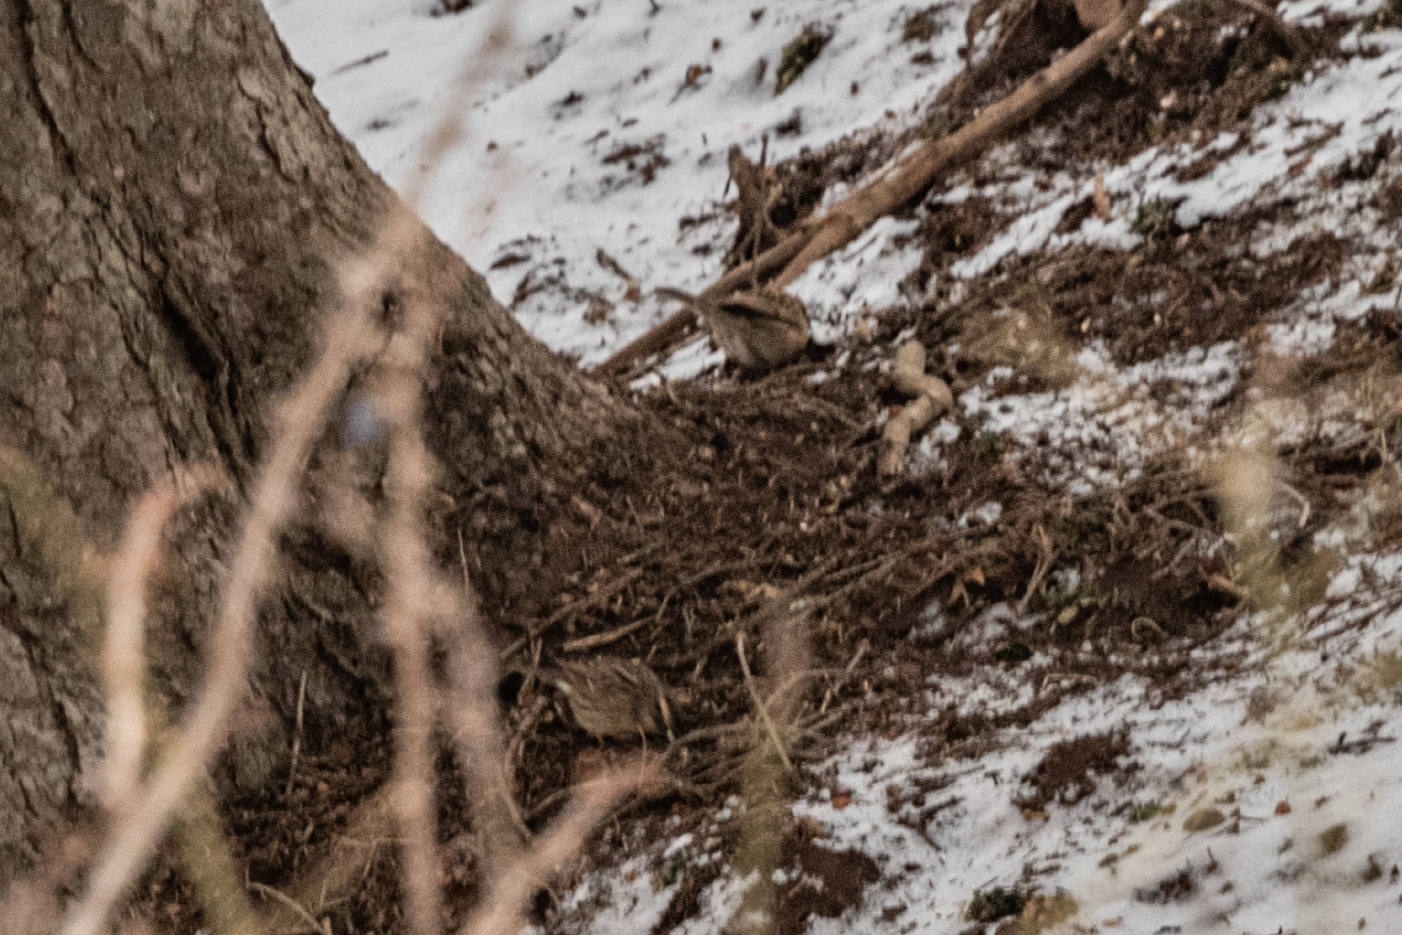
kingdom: Animalia
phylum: Chordata
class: Aves
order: Passeriformes
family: Prunellidae
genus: Prunella
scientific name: Prunella atrogularis
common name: Black-throated accentor
